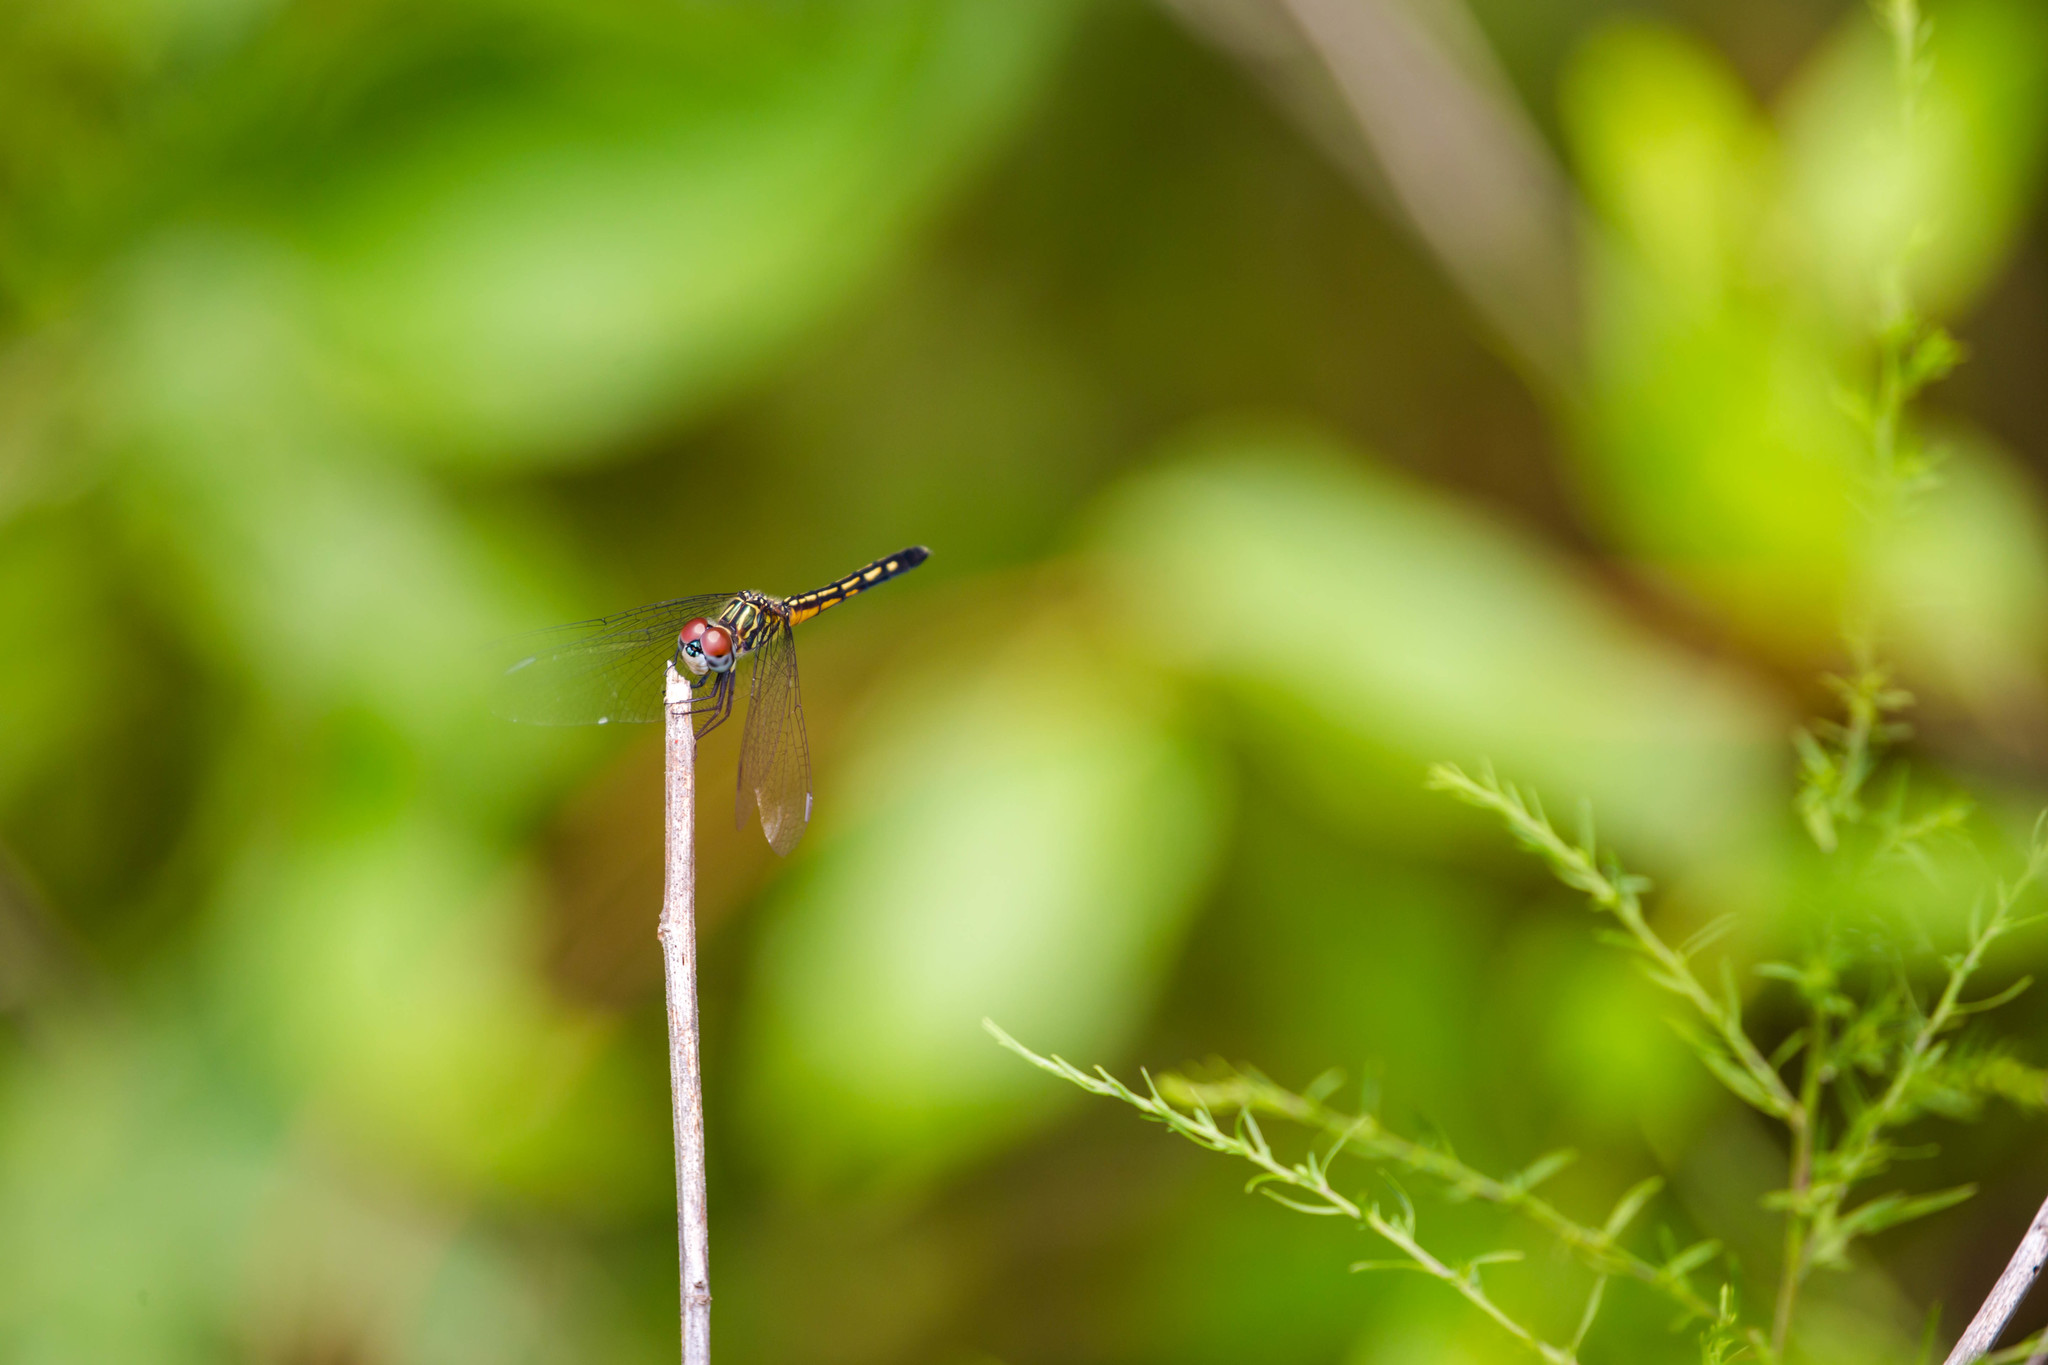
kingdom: Animalia
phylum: Arthropoda
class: Insecta
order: Odonata
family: Libellulidae
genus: Pachydiplax
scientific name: Pachydiplax longipennis
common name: Blue dasher
